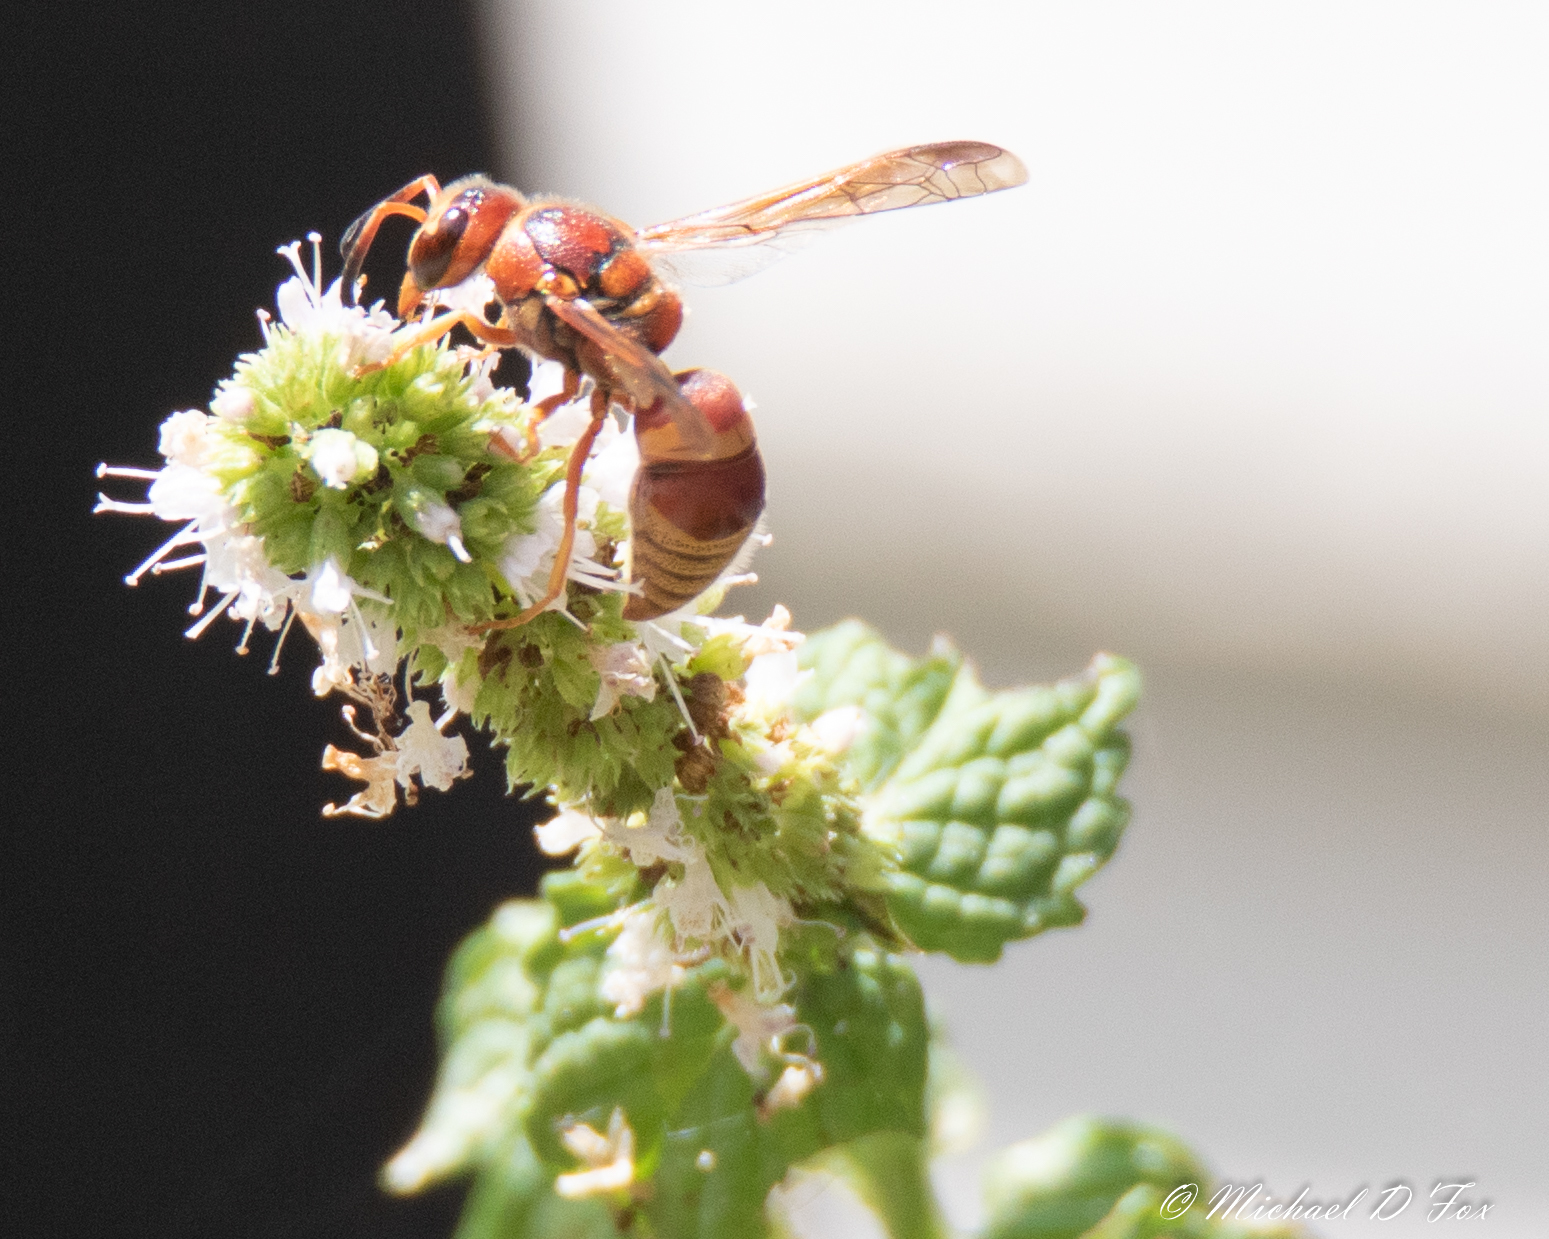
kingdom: Animalia
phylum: Arthropoda
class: Insecta
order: Hymenoptera
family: Eumenidae
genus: Euodynerus
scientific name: Euodynerus pratensis
